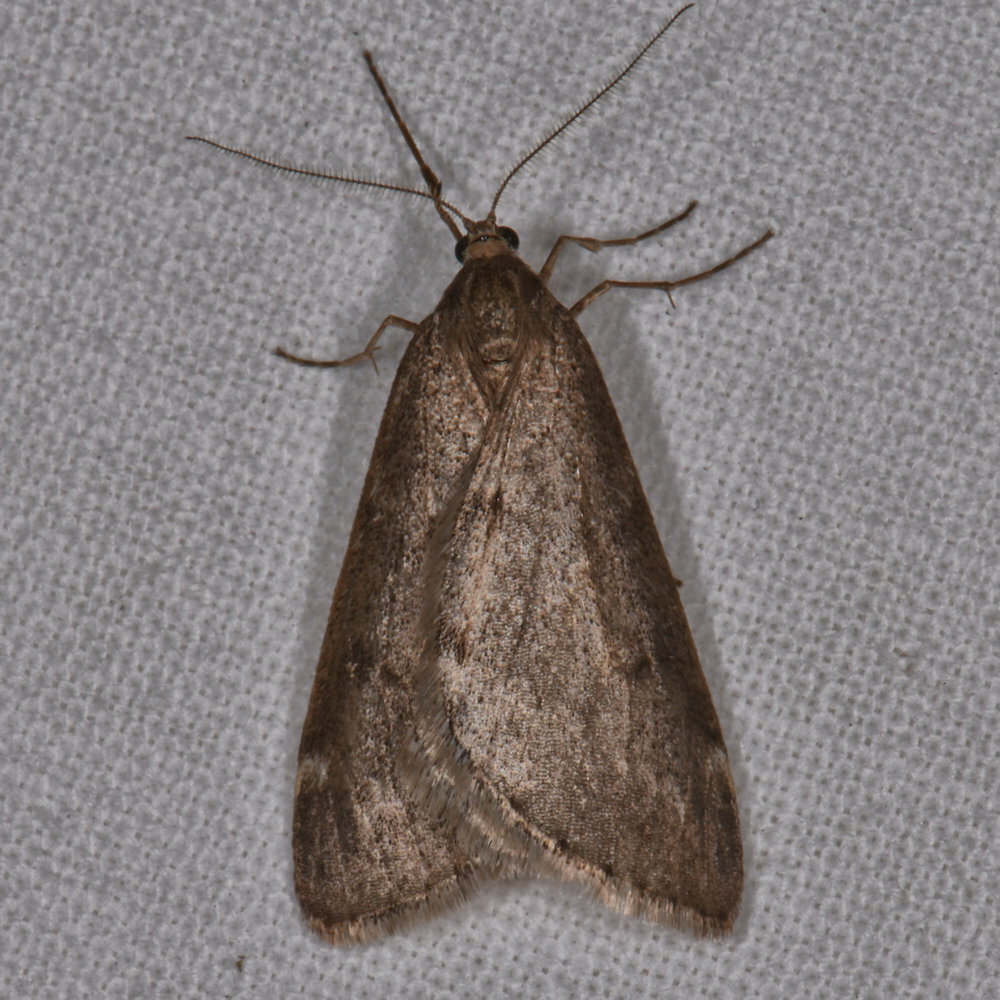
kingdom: Animalia
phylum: Arthropoda
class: Insecta
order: Lepidoptera
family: Geometridae
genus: Alsophila
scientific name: Alsophila pometaria
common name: Fall cankerworm
